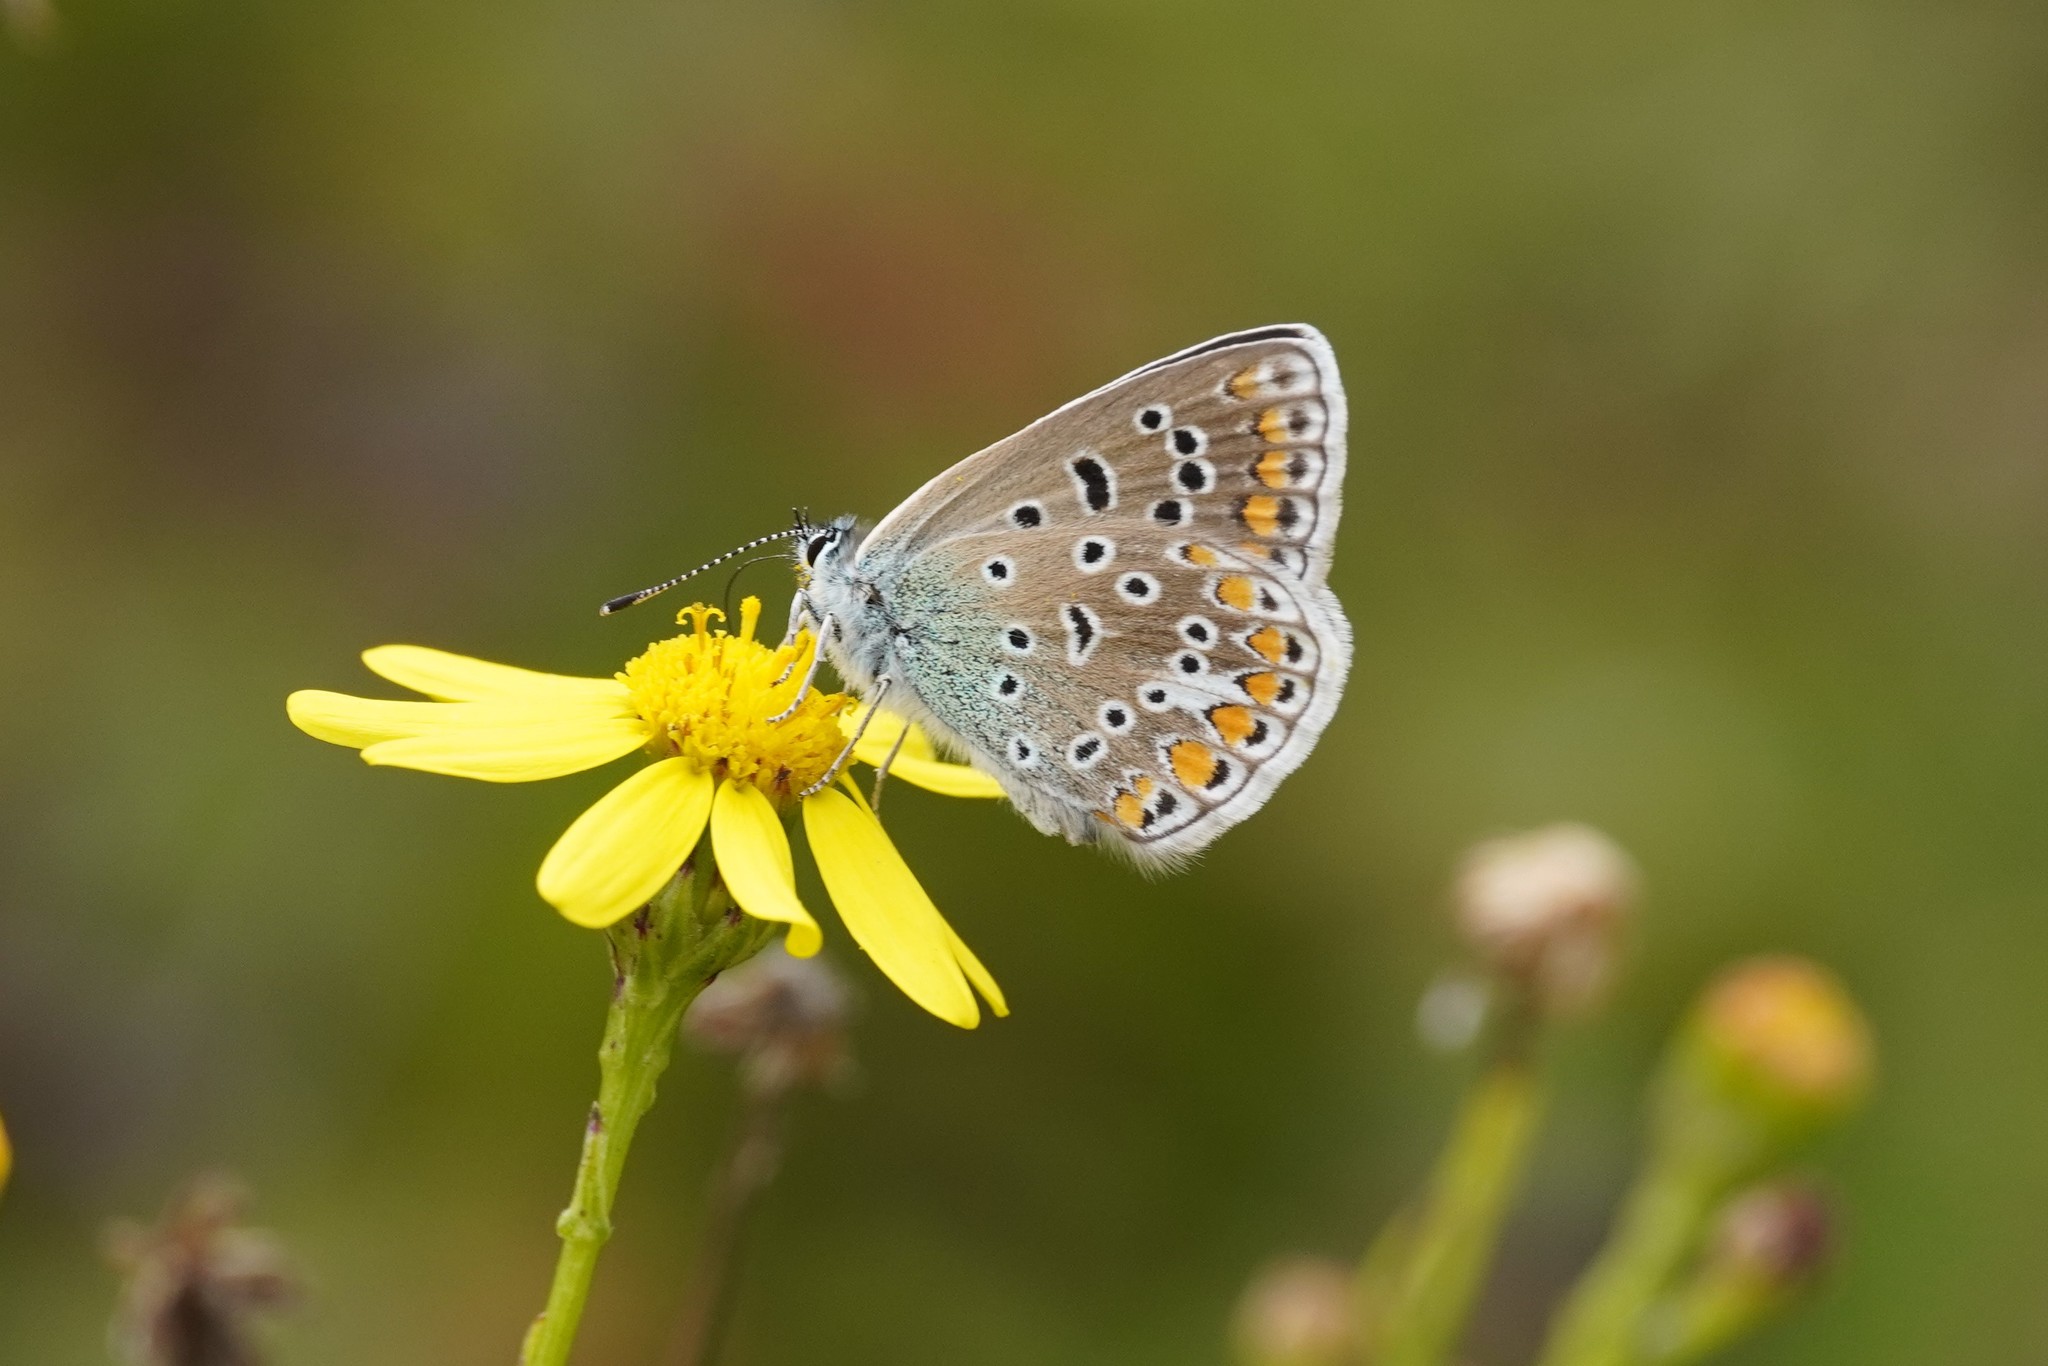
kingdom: Animalia
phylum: Arthropoda
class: Insecta
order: Lepidoptera
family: Lycaenidae
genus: Polyommatus
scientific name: Polyommatus icarus
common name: Common blue
